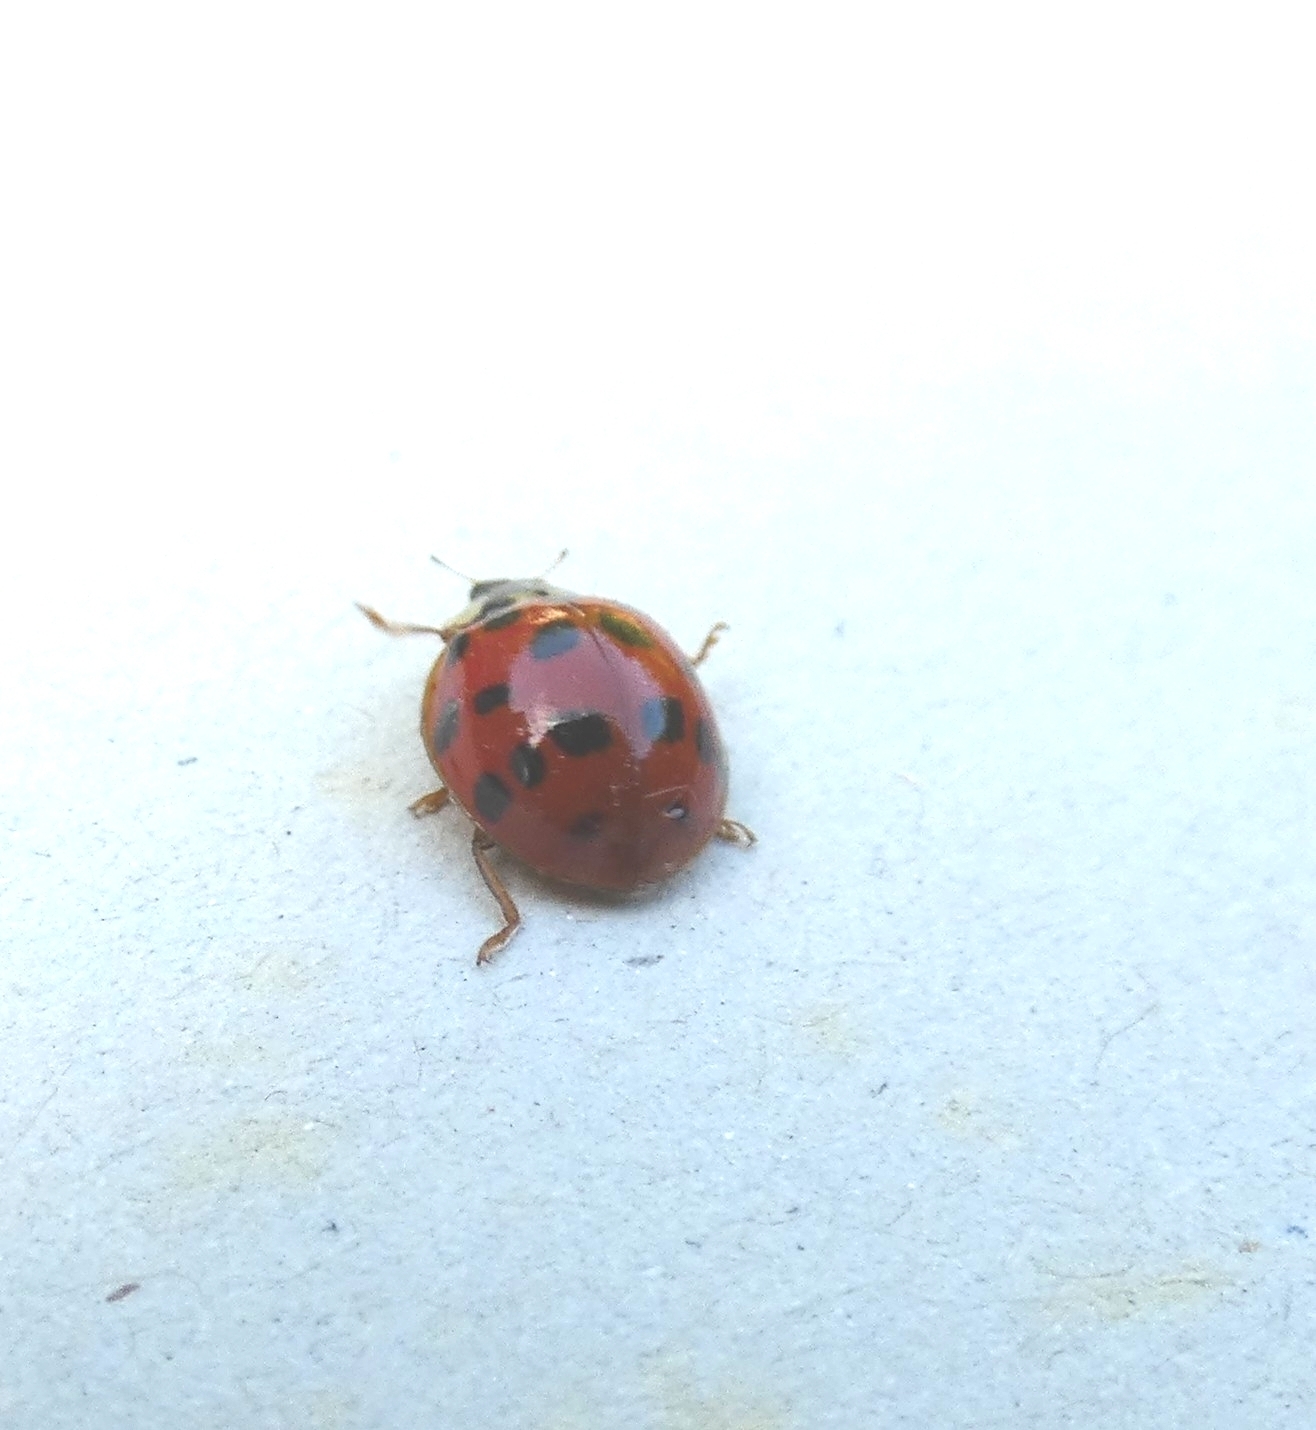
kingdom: Animalia
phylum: Arthropoda
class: Insecta
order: Coleoptera
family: Coccinellidae
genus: Harmonia
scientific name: Harmonia axyridis
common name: Harlequin ladybird
